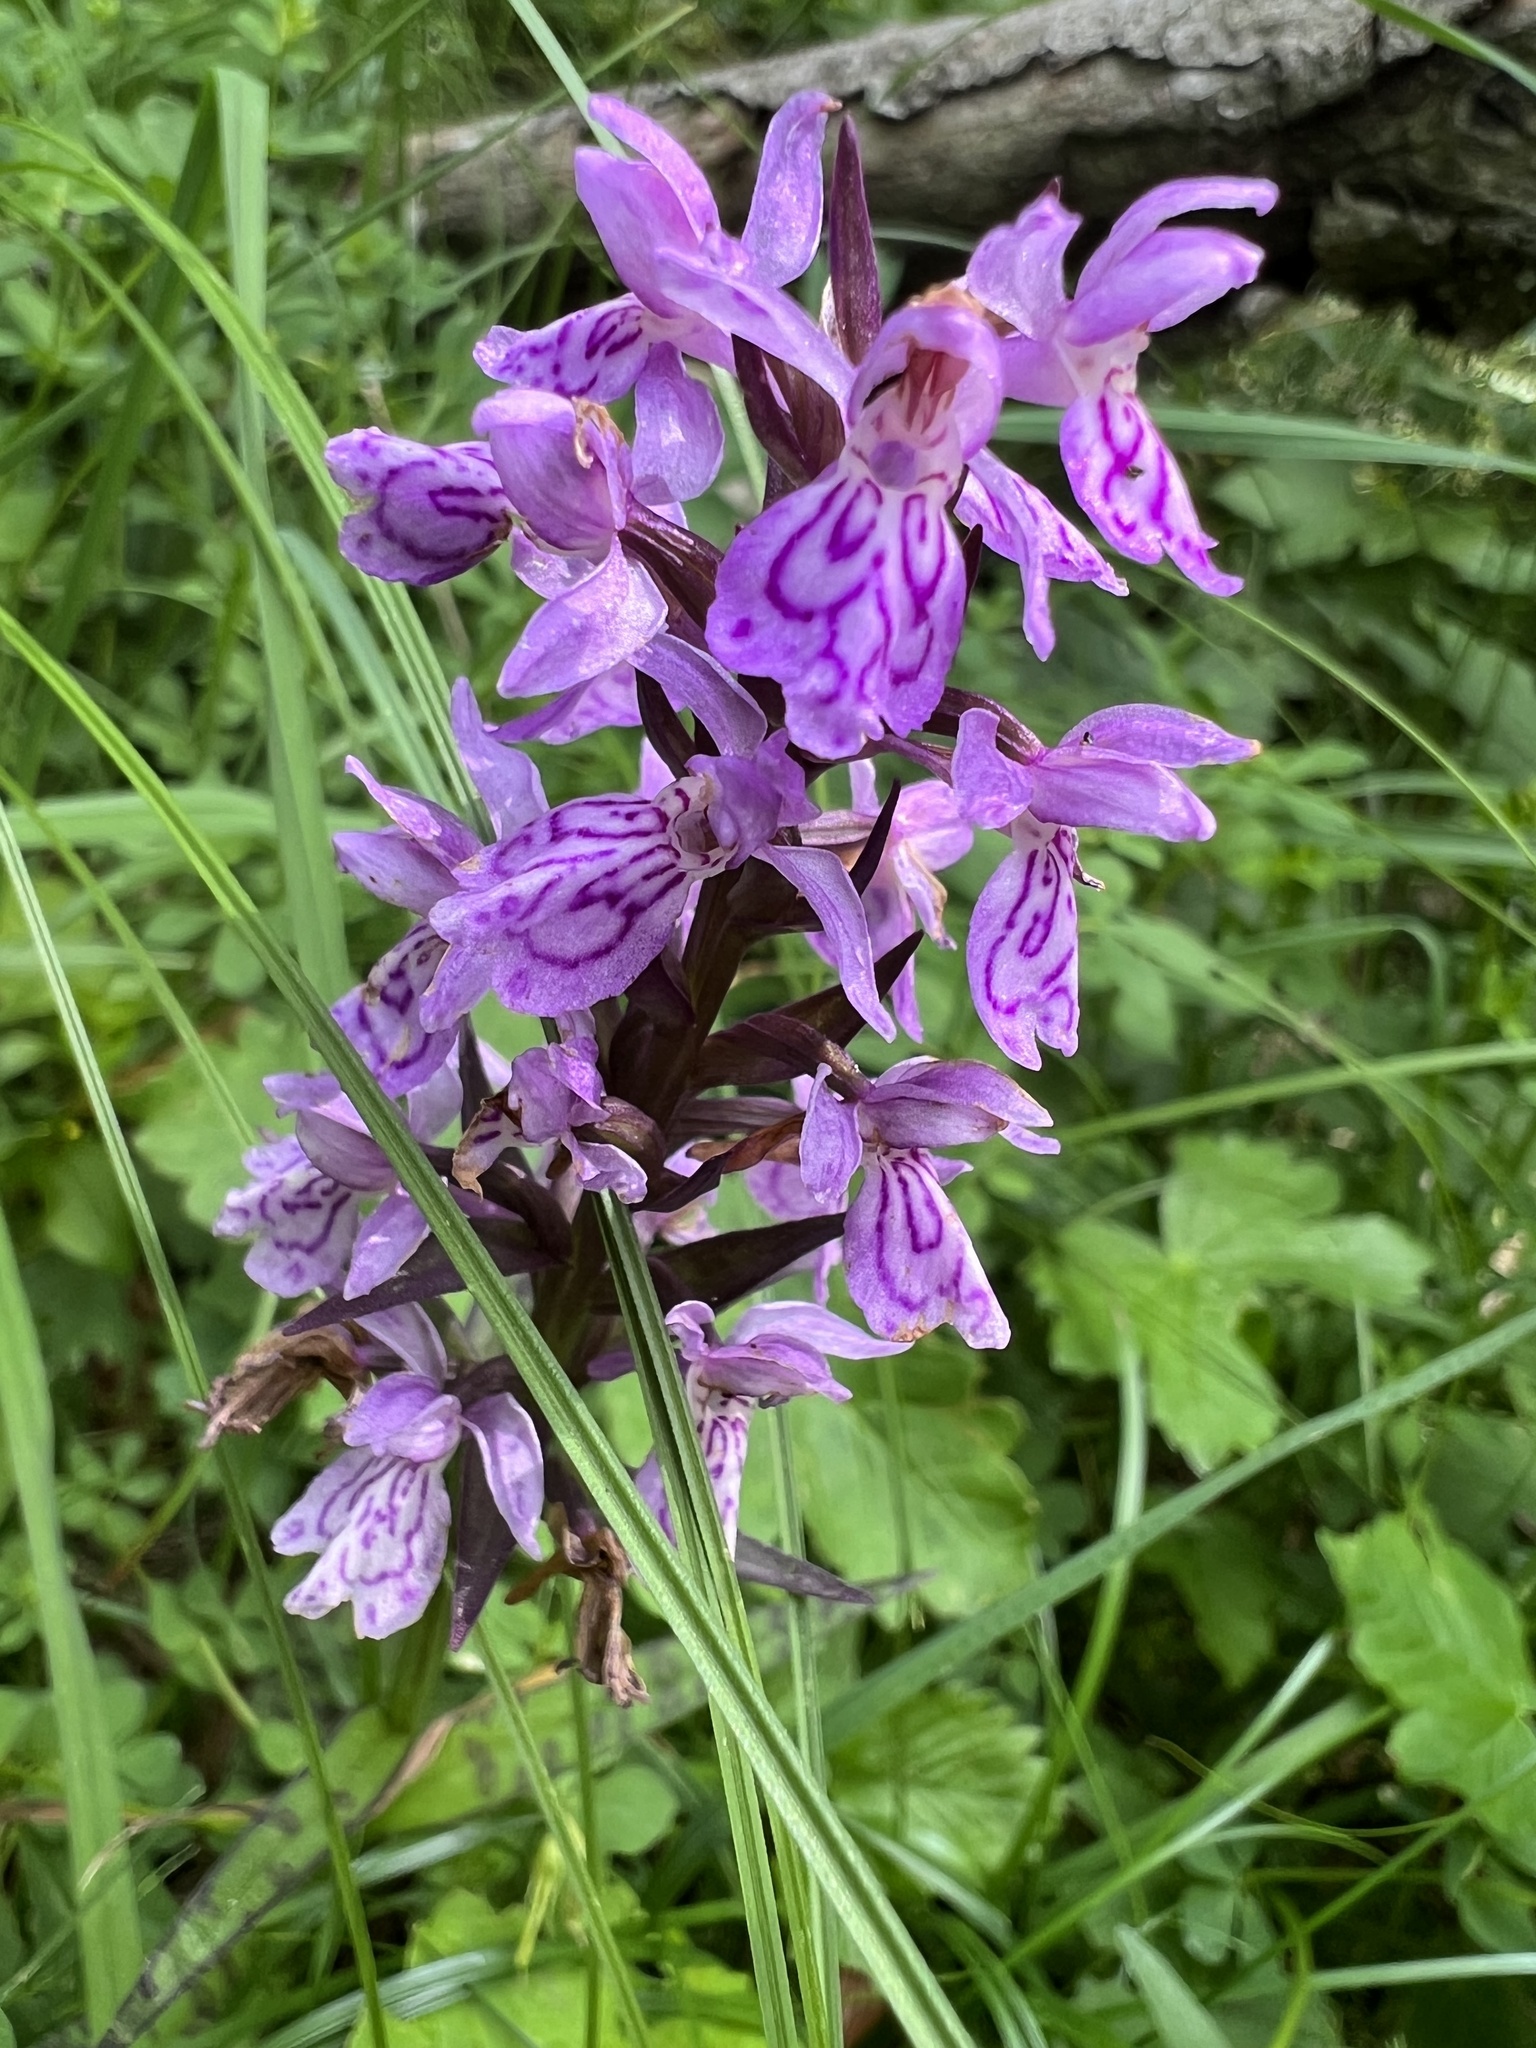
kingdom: Plantae
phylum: Tracheophyta
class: Liliopsida
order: Asparagales
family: Orchidaceae
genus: Dactylorhiza
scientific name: Dactylorhiza maculata
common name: Heath spotted-orchid
